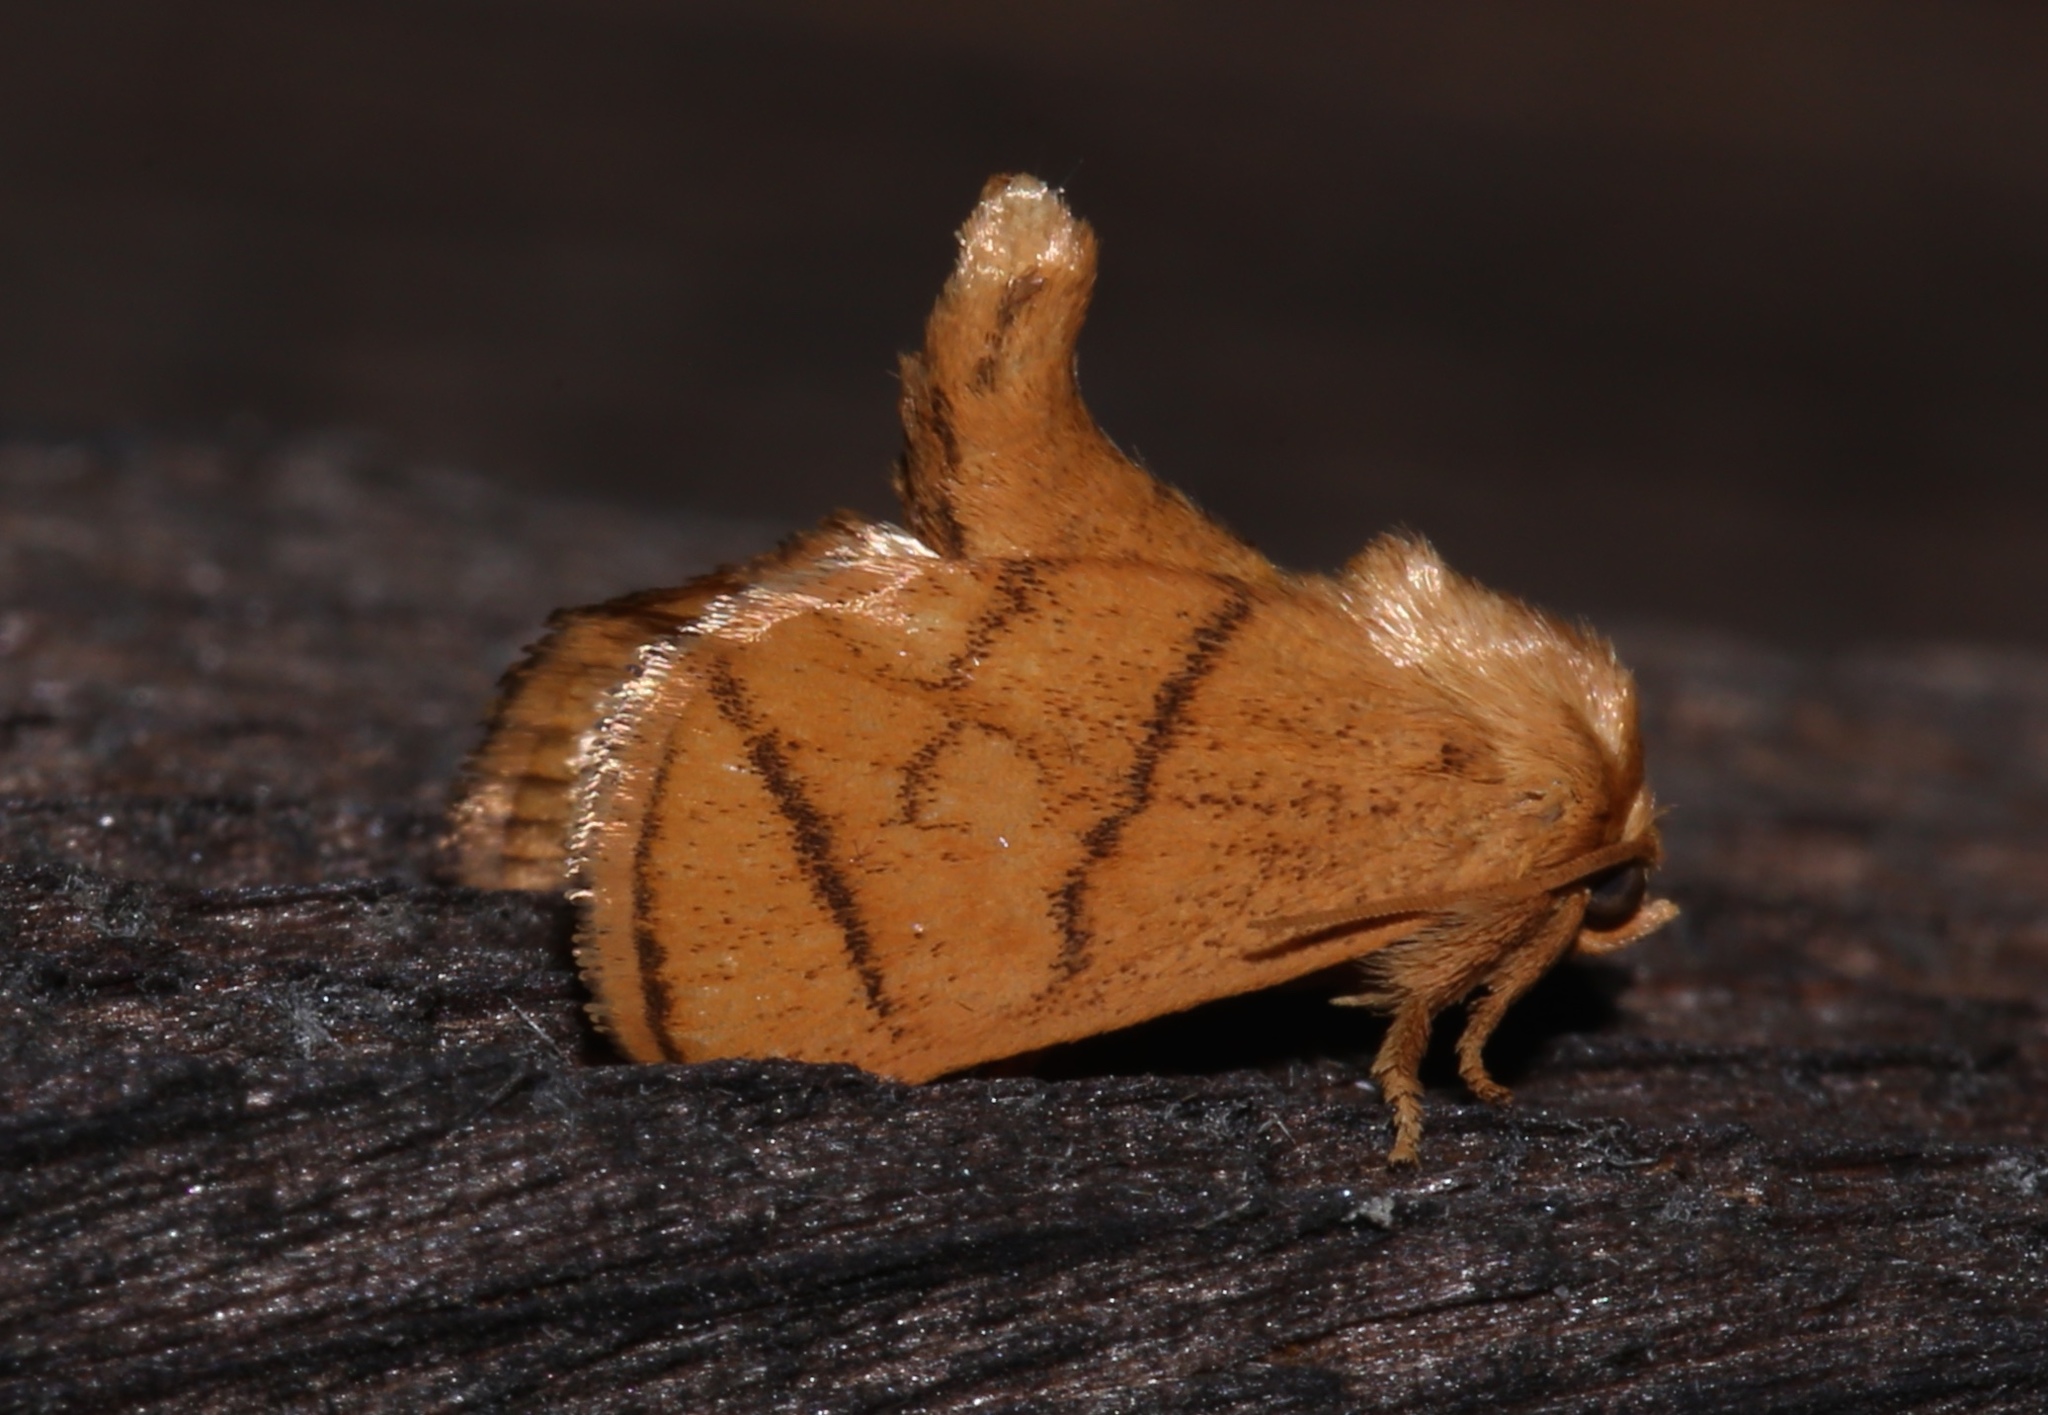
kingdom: Animalia
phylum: Arthropoda
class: Insecta
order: Lepidoptera
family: Limacodidae
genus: Apoda
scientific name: Apoda y-inversa
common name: Yellow-collared slug moth
